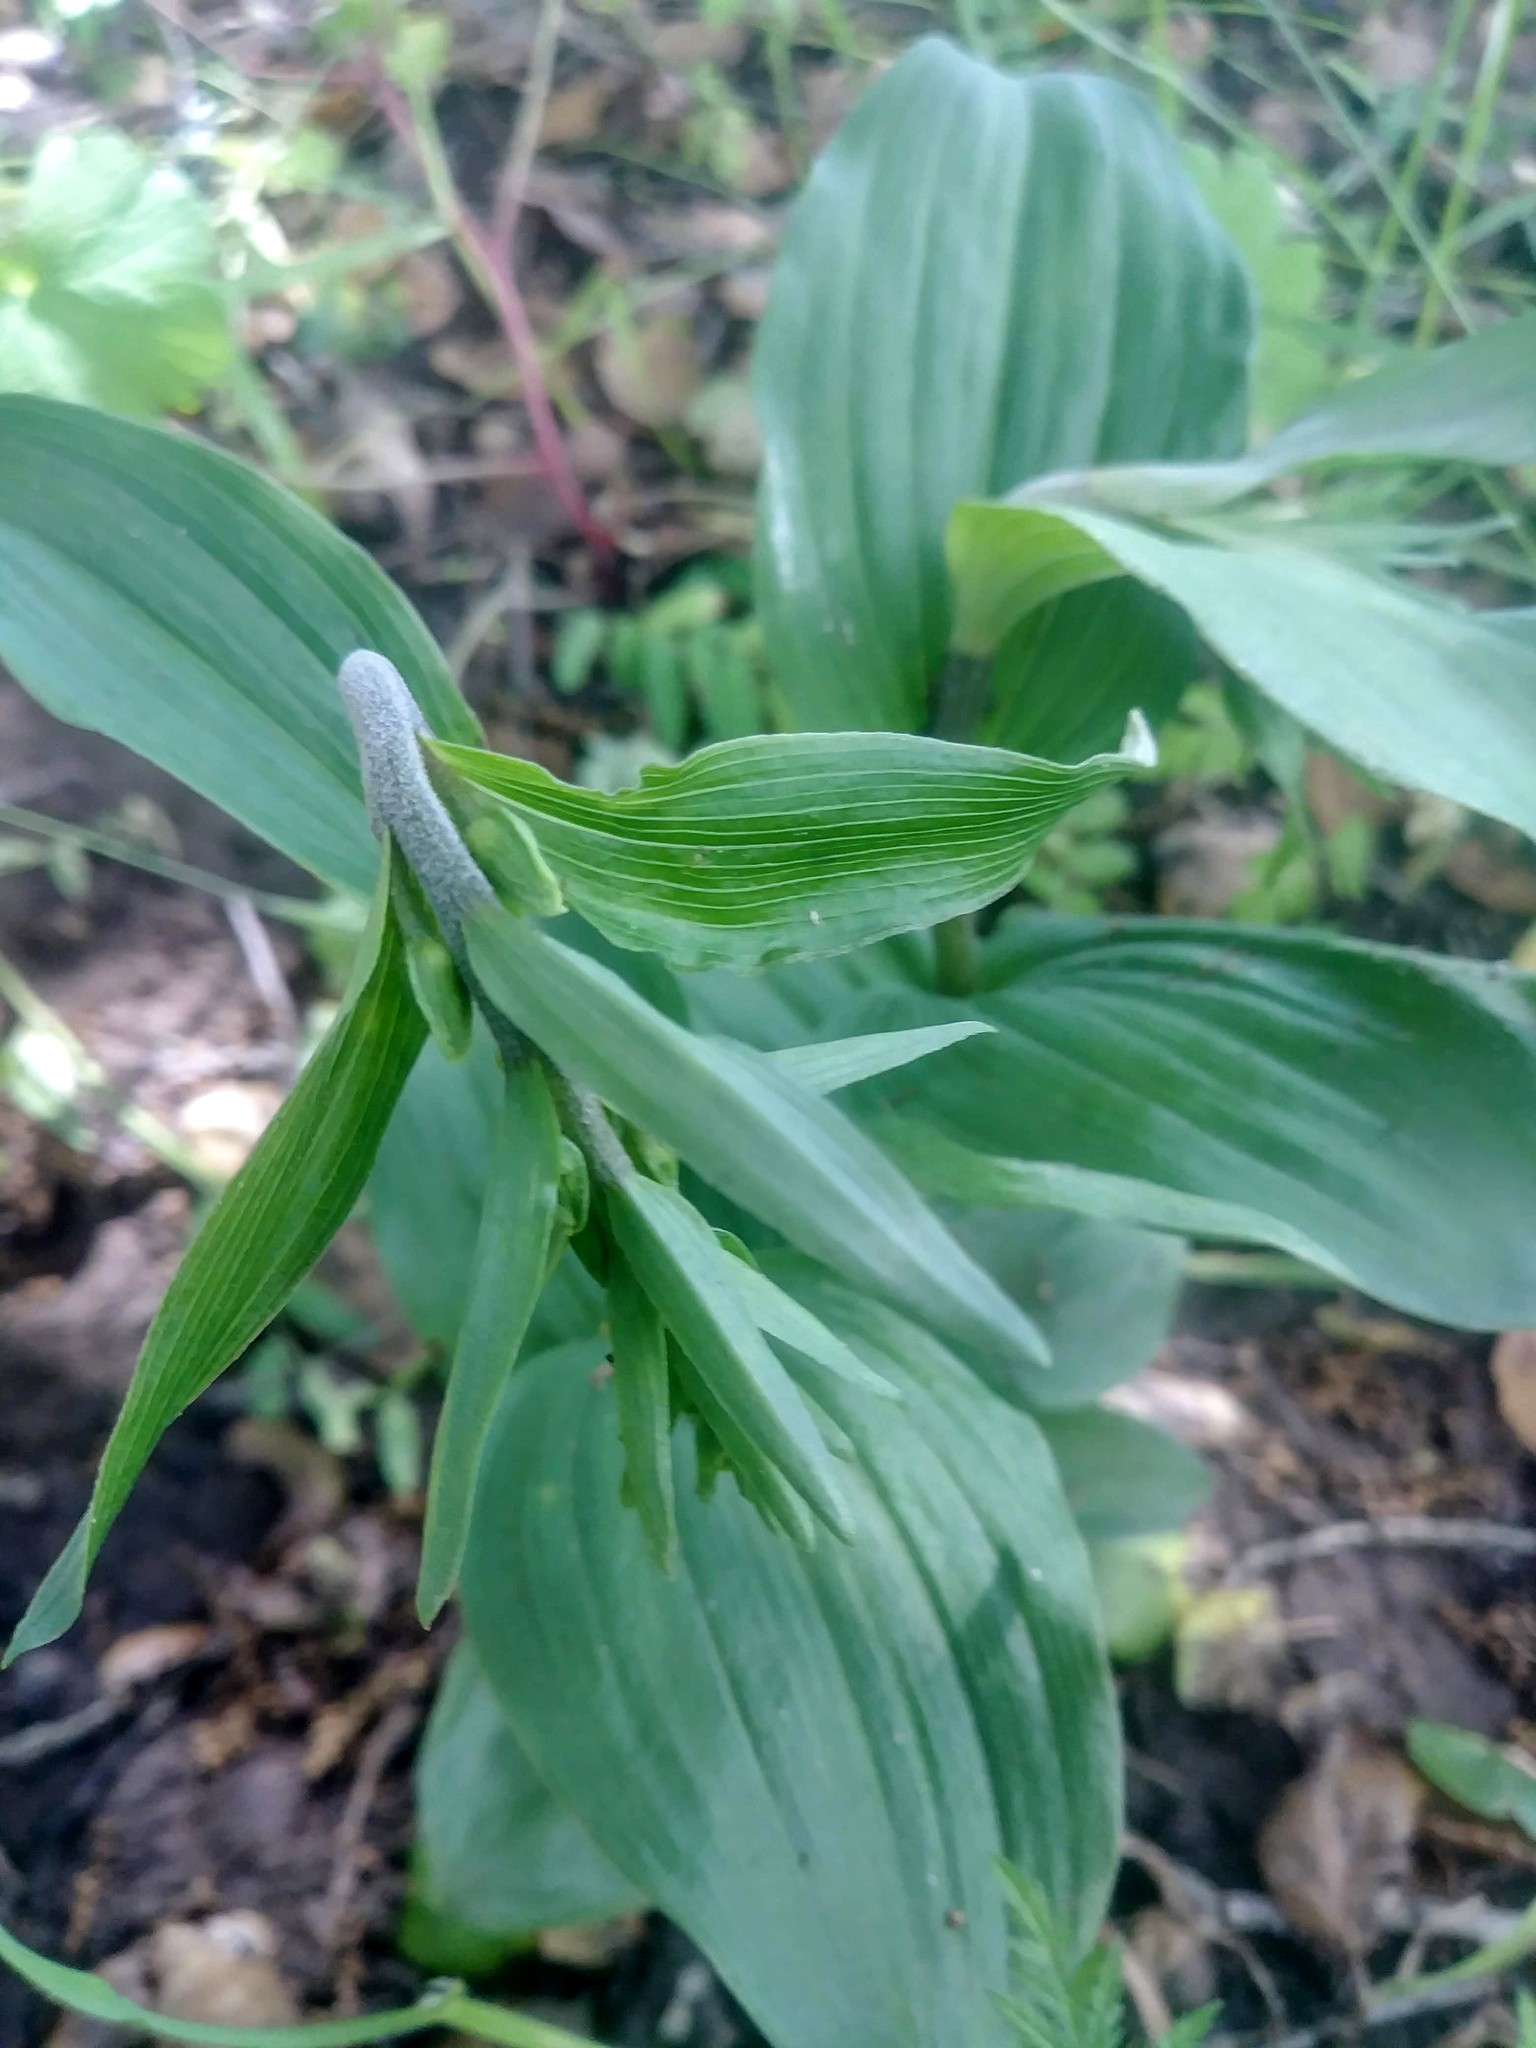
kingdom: Plantae
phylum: Tracheophyta
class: Liliopsida
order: Asparagales
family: Orchidaceae
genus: Epipactis
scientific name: Epipactis helleborine
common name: Broad-leaved helleborine
